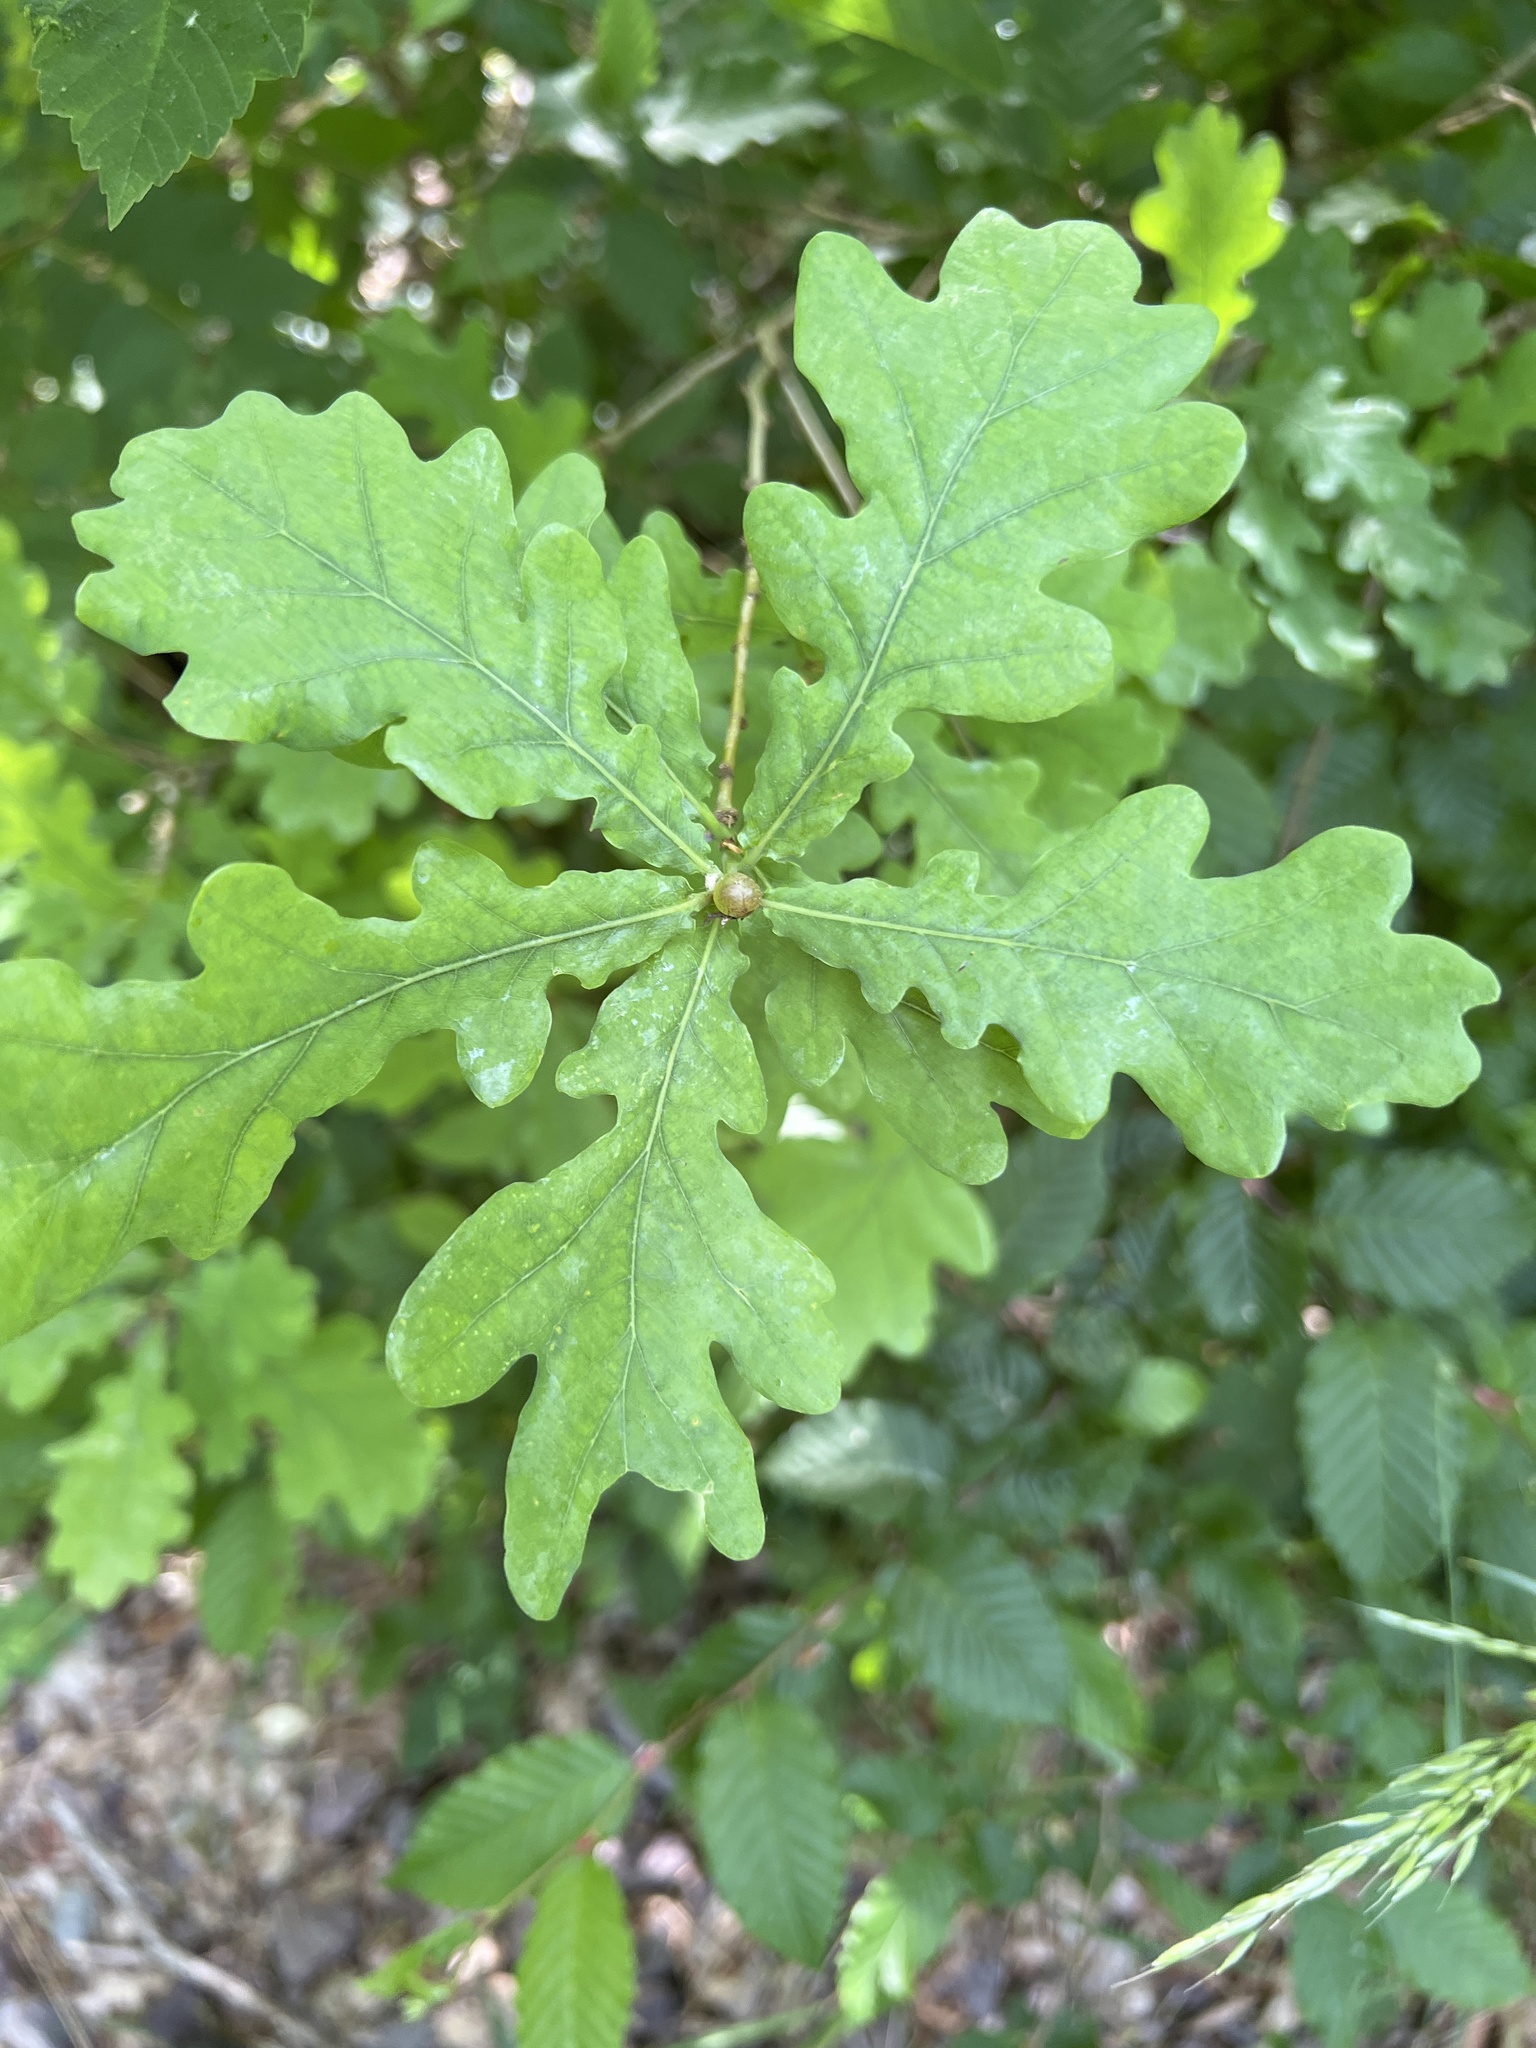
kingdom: Plantae
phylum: Tracheophyta
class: Magnoliopsida
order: Fagales
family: Fagaceae
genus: Quercus
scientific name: Quercus robur
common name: Pedunculate oak
